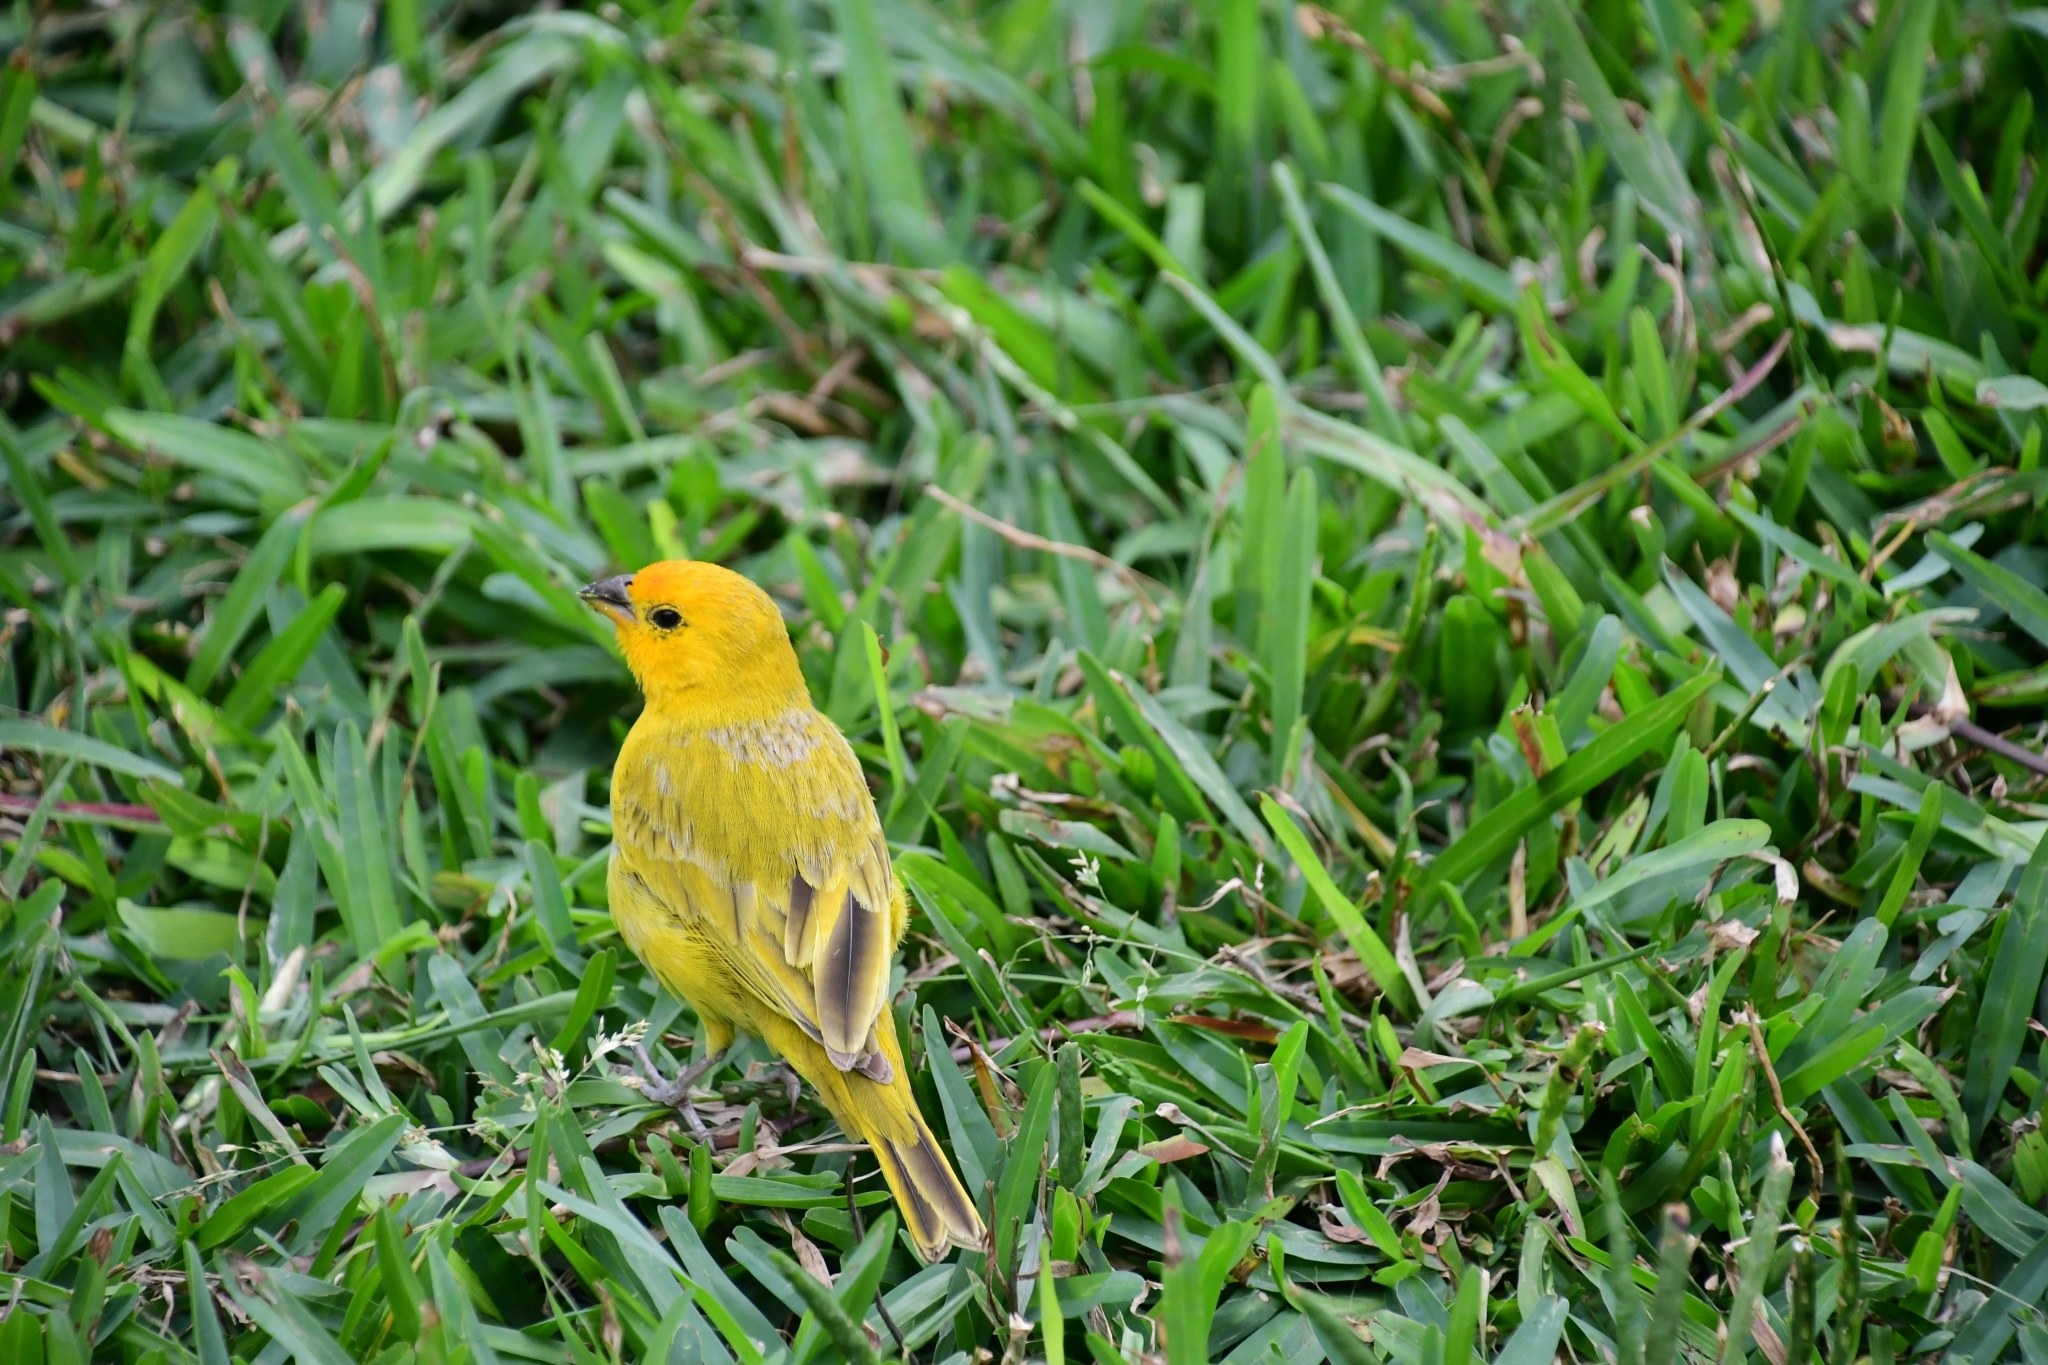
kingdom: Animalia
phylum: Chordata
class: Aves
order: Passeriformes
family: Thraupidae
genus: Sicalis
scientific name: Sicalis flaveola
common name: Saffron finch
